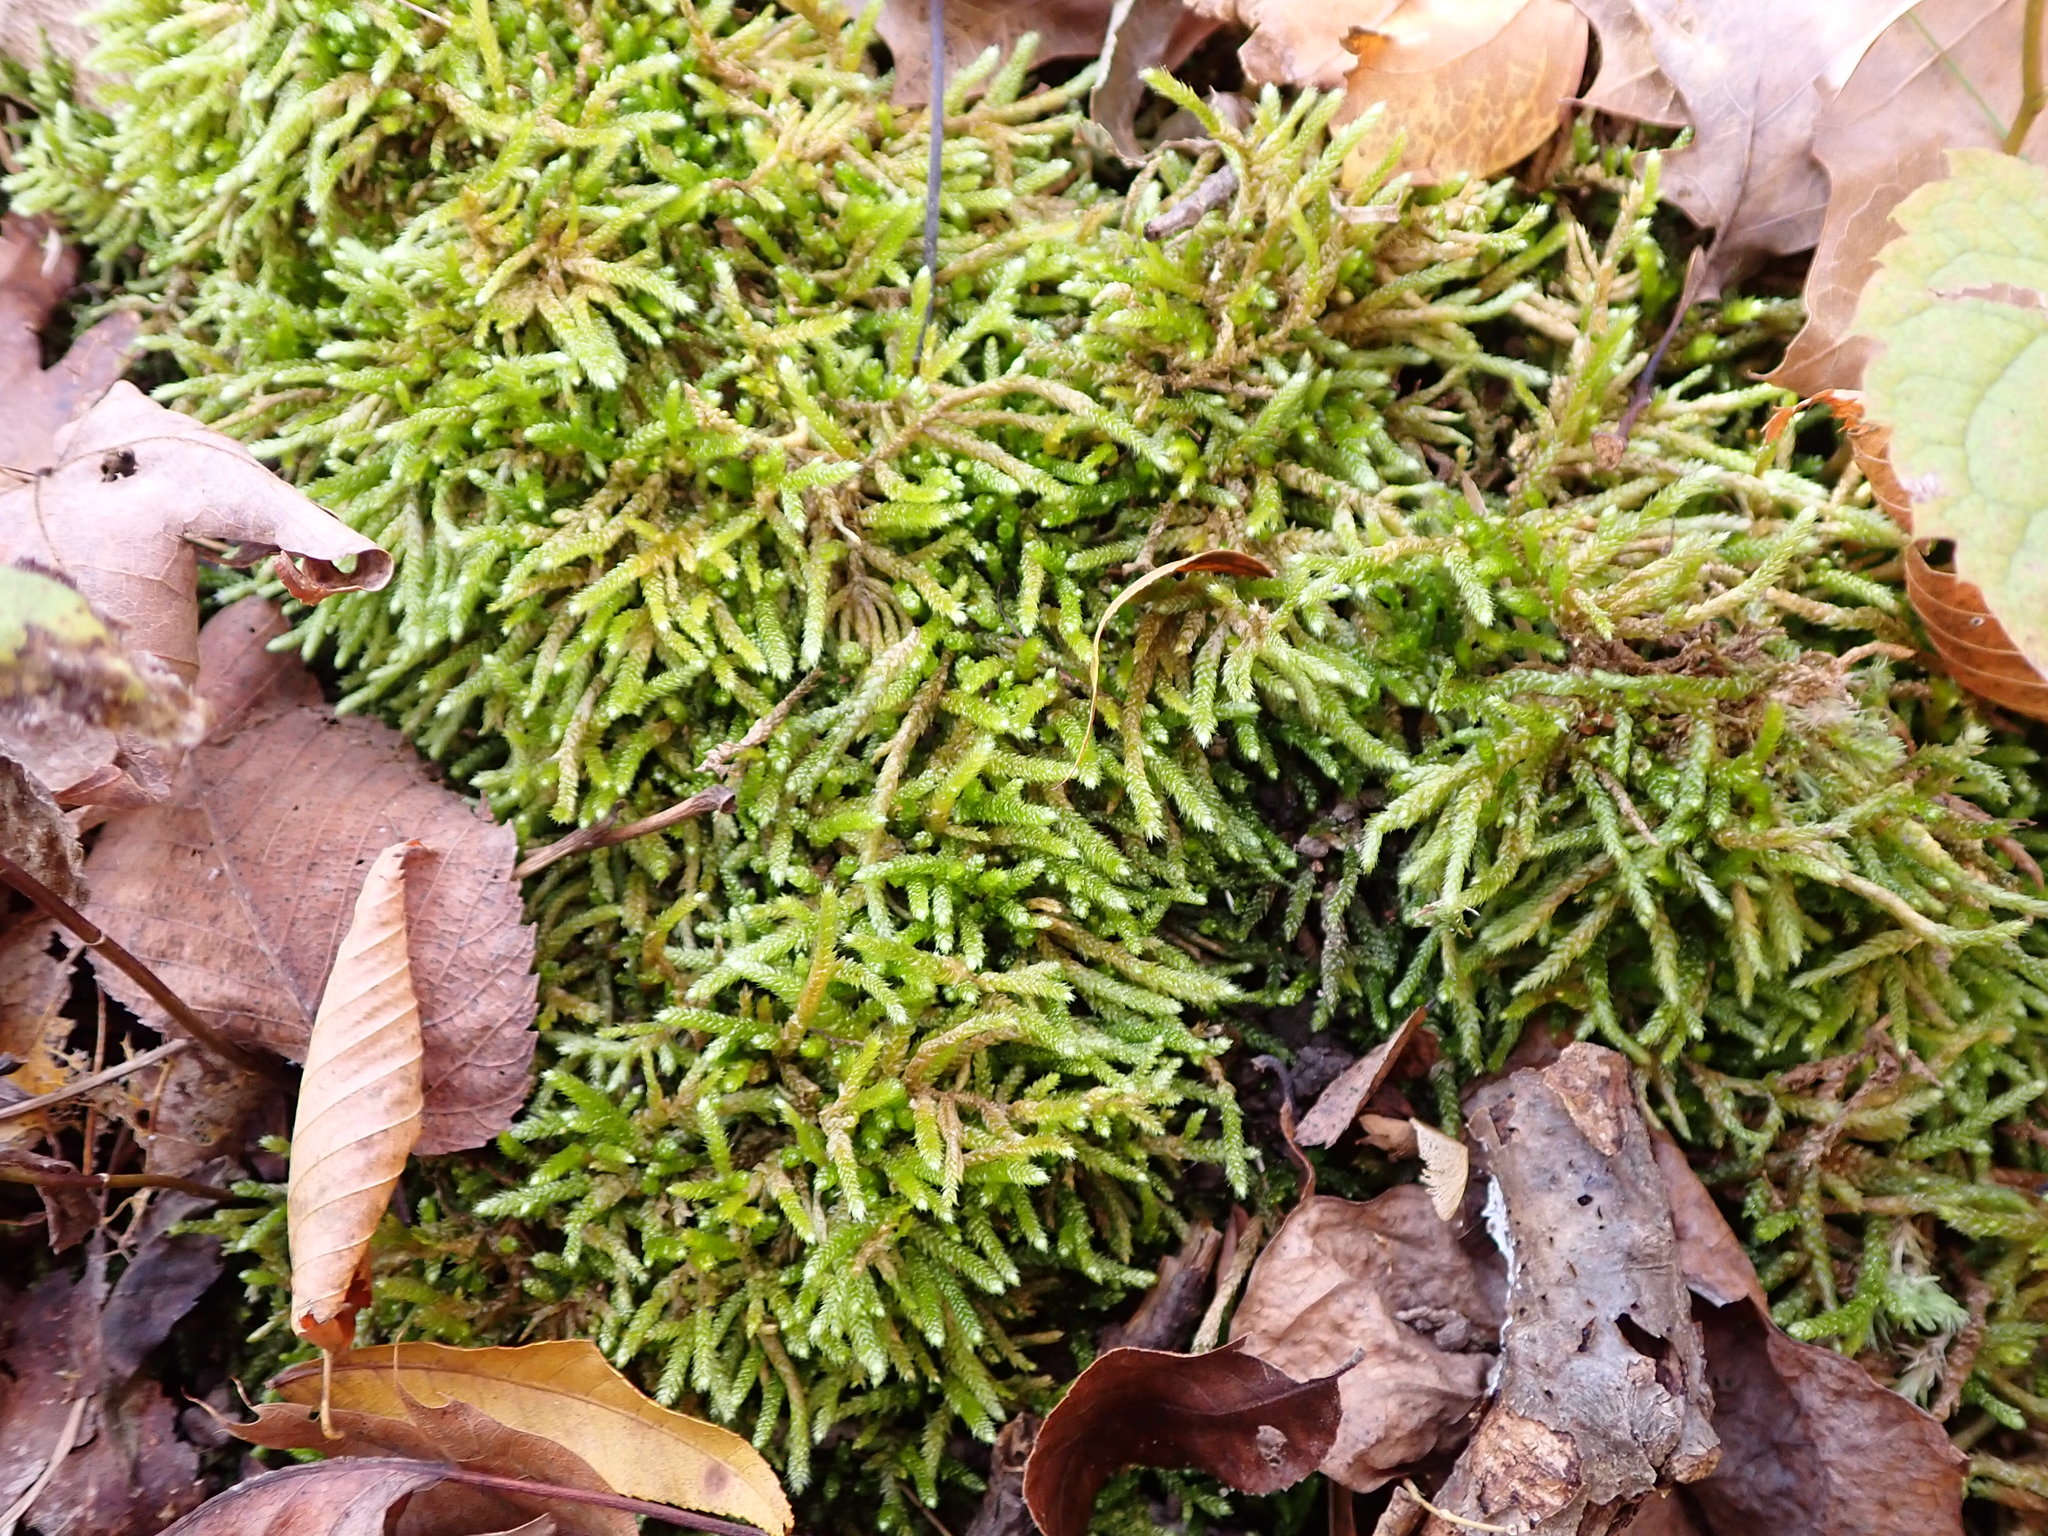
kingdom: Plantae
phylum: Bryophyta
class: Bryopsida
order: Hypnales
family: Brachytheciaceae
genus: Bryoandersonia
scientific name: Bryoandersonia illecebra
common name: Spoon-leaved moss
